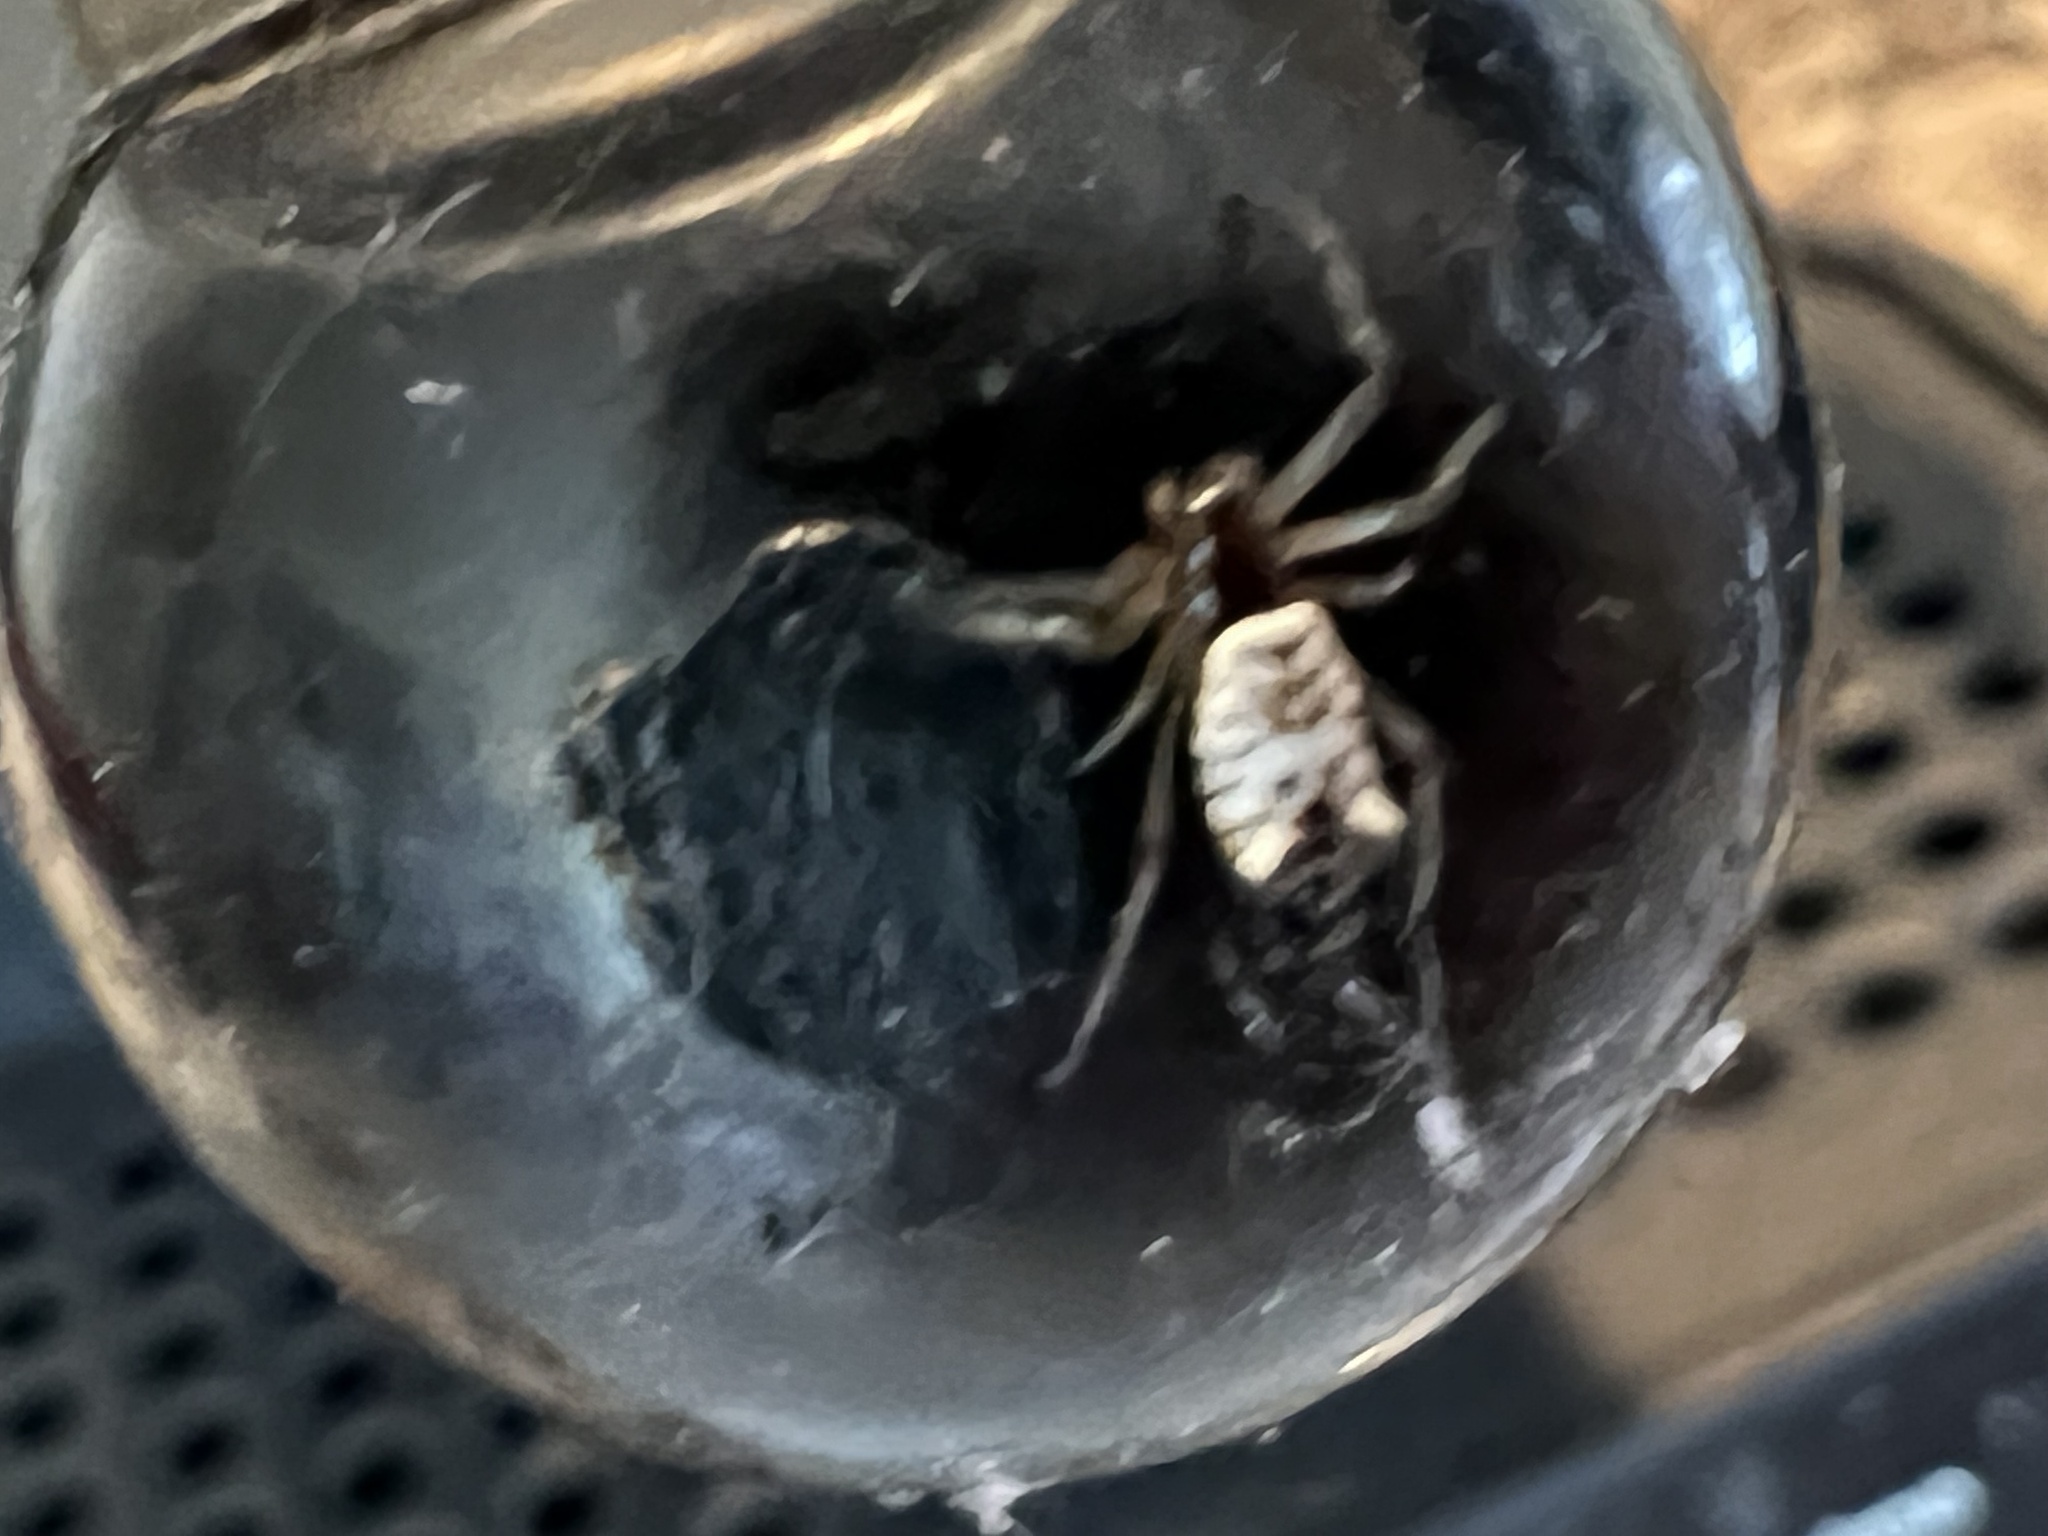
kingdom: Animalia
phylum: Arthropoda
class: Arachnida
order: Araneae
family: Araneidae
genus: Micrathena
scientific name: Micrathena mitrata
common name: Orb weavers
